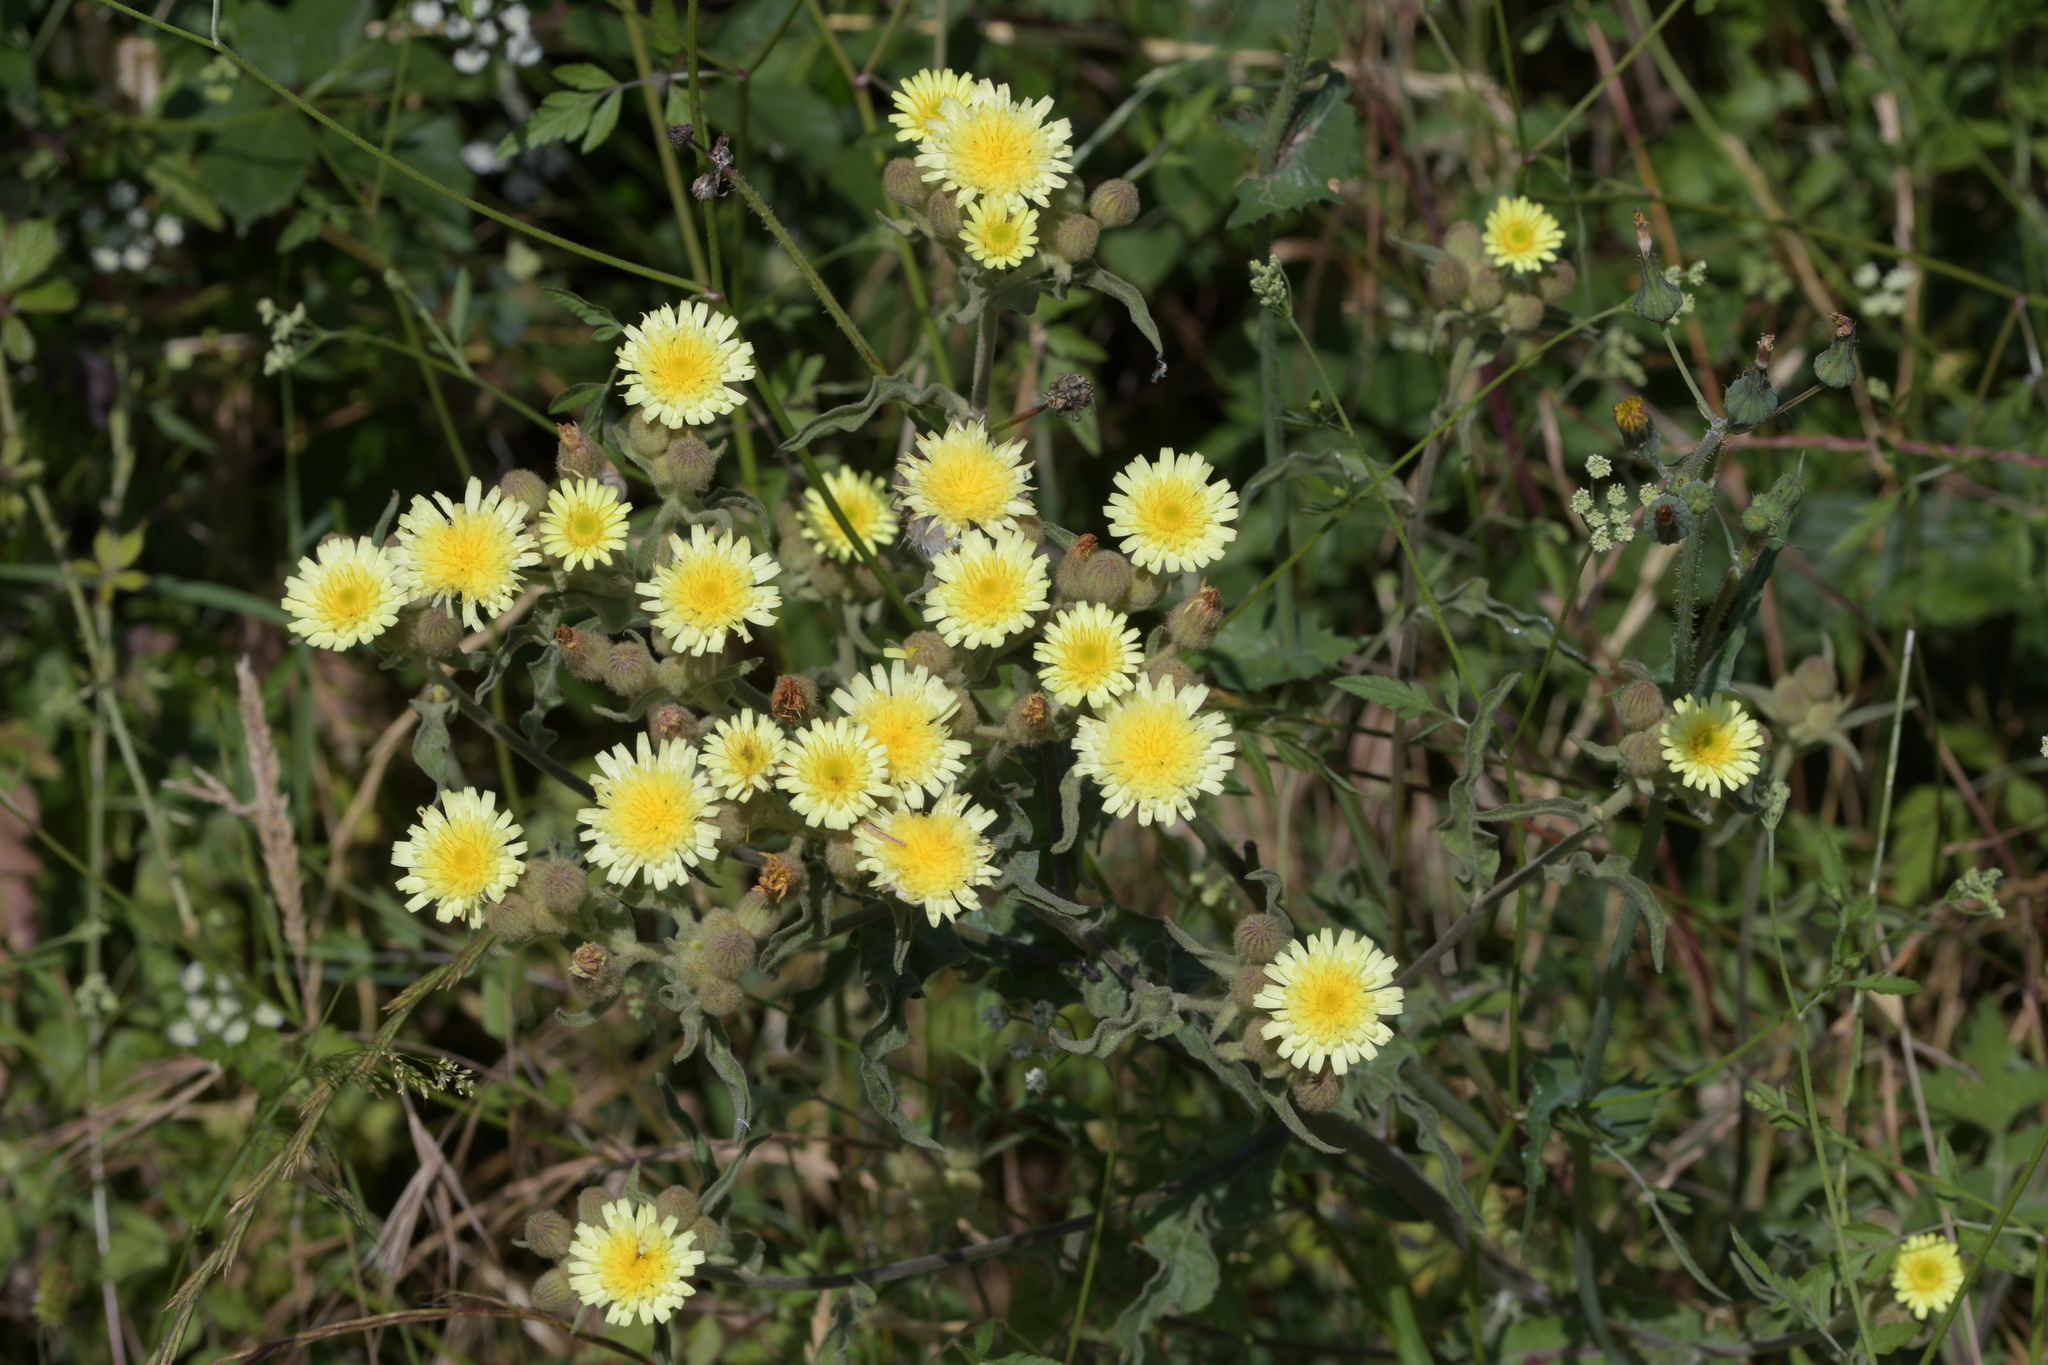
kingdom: Plantae
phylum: Tracheophyta
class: Magnoliopsida
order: Asterales
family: Asteraceae
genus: Andryala
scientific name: Andryala integrifolia
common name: Common andryala
